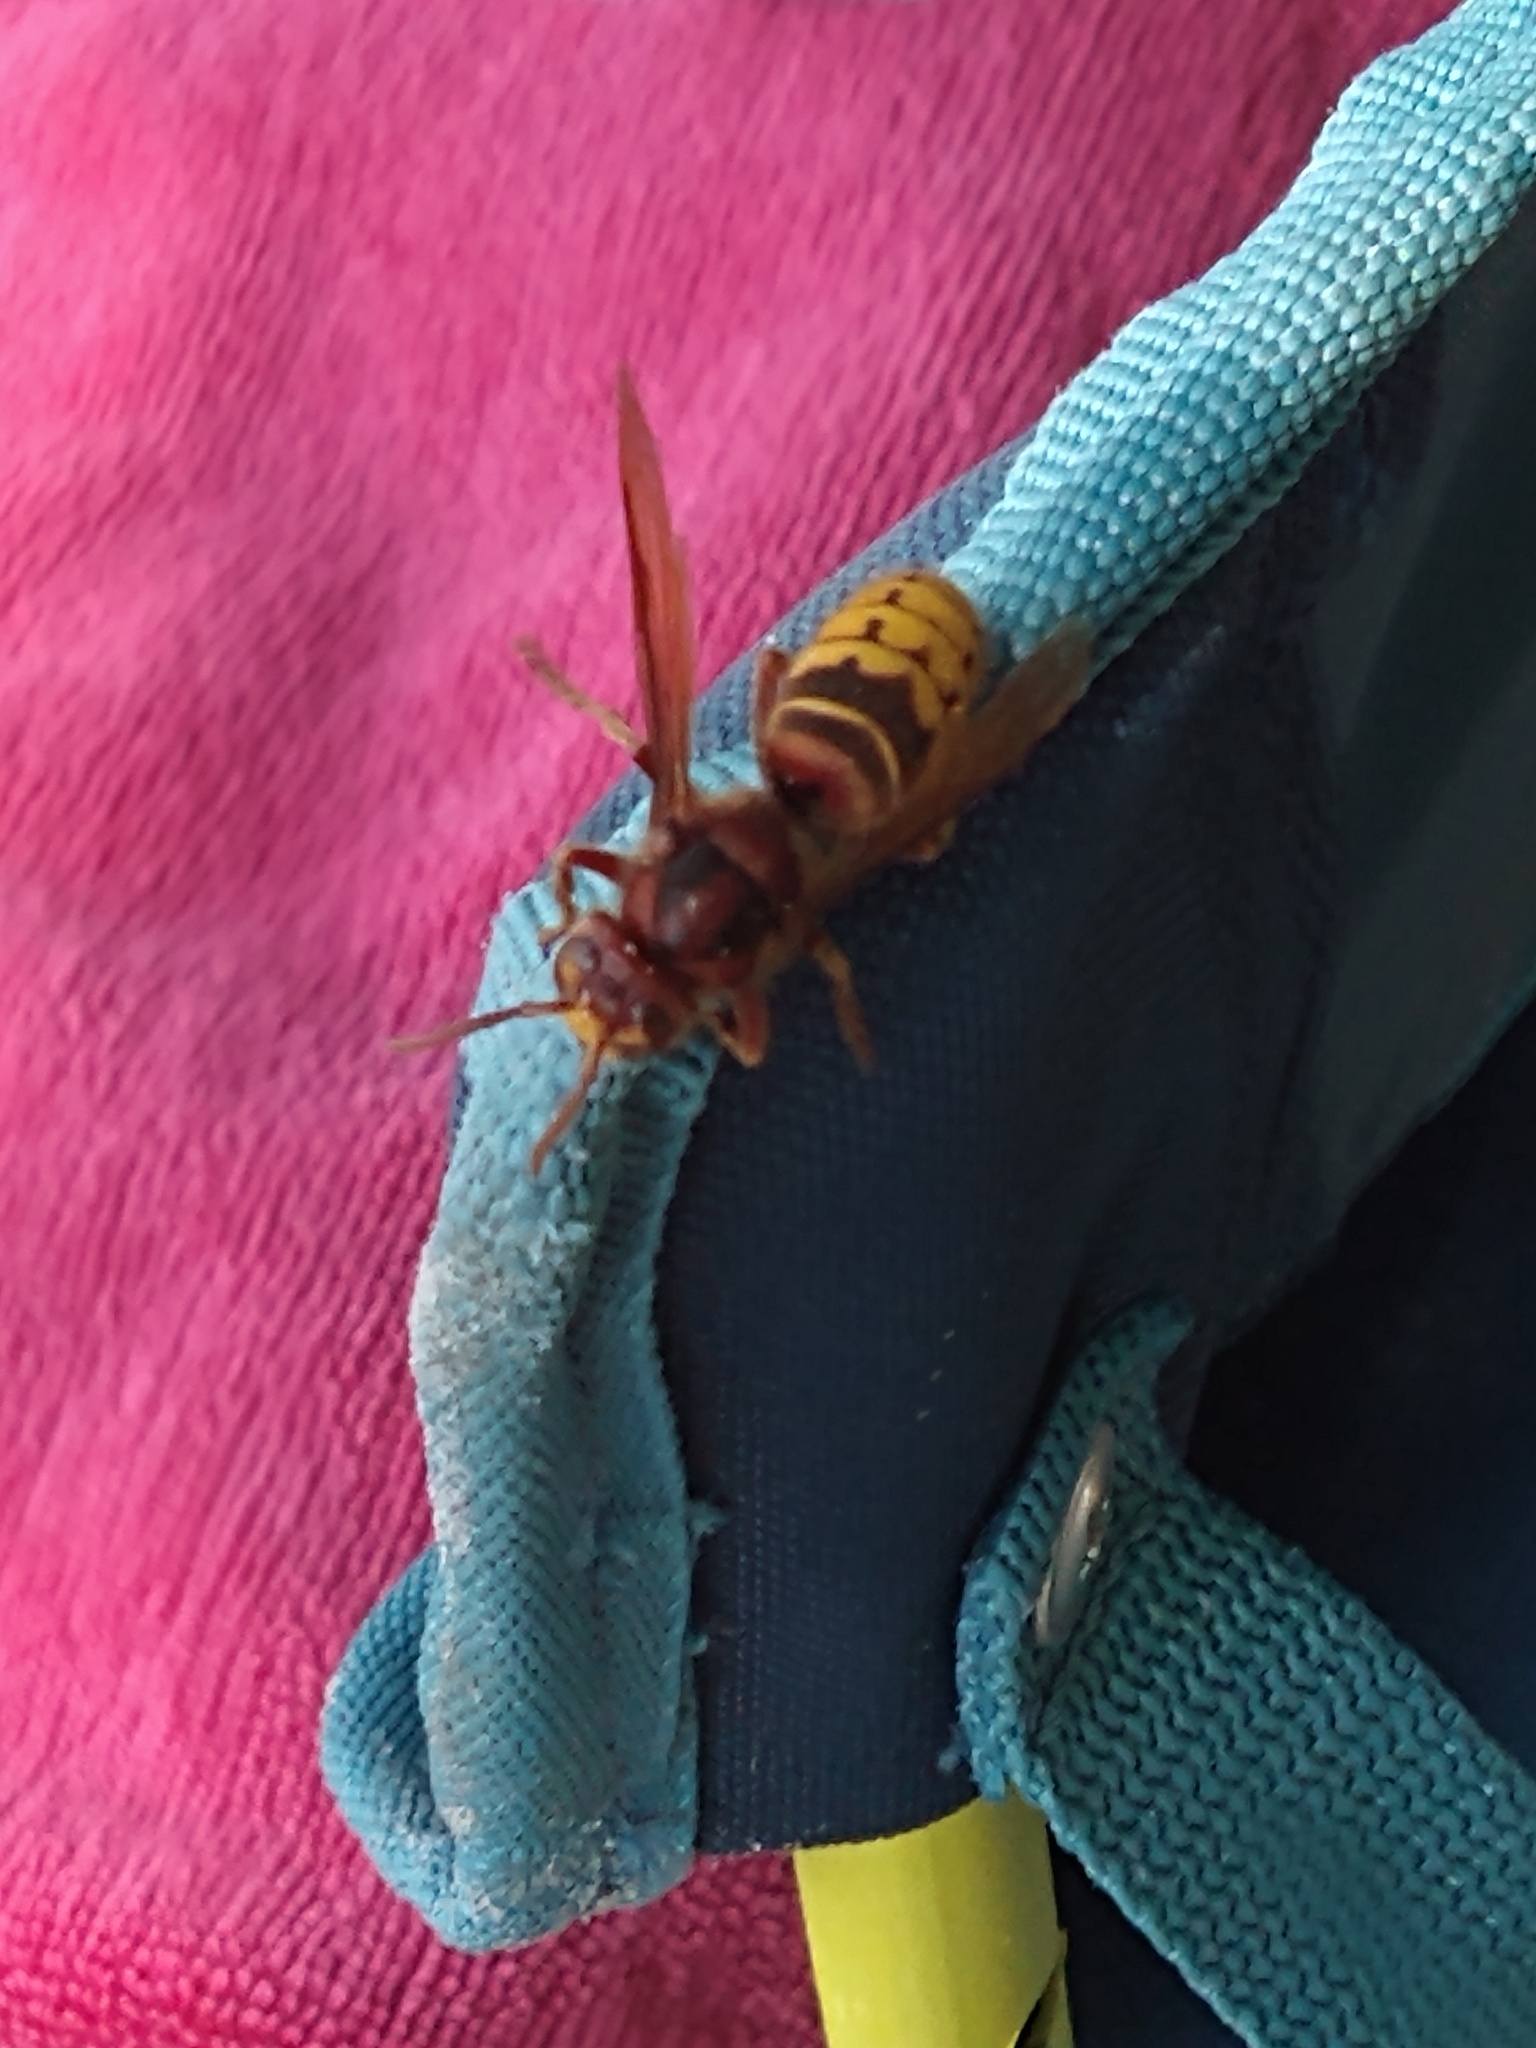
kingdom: Animalia
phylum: Arthropoda
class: Insecta
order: Hymenoptera
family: Vespidae
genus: Vespa
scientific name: Vespa crabro
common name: Hornet
